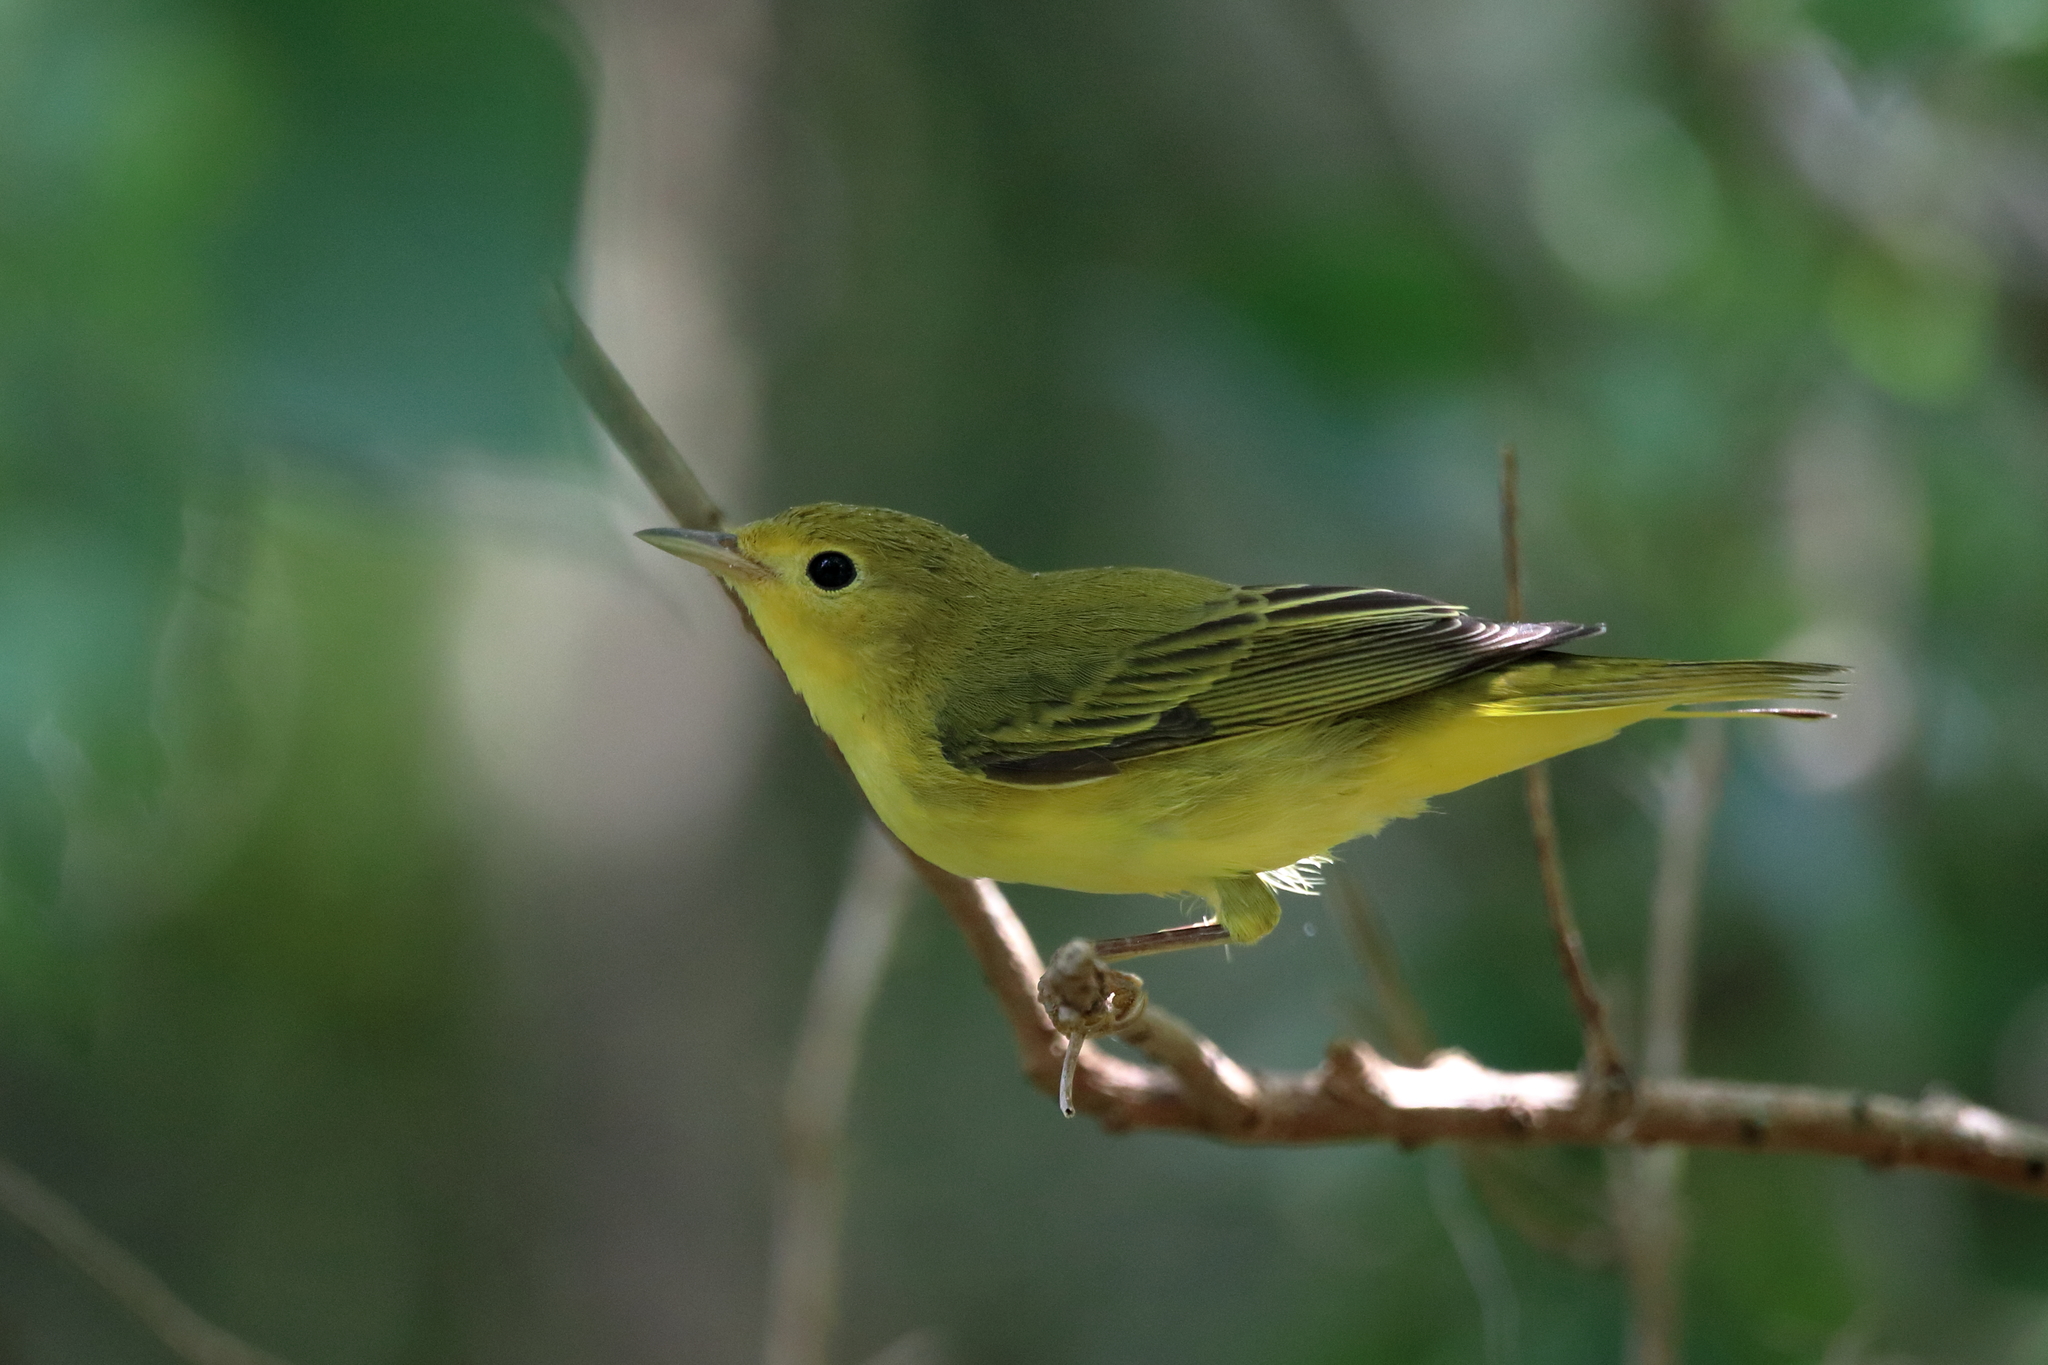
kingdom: Animalia
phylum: Chordata
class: Aves
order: Passeriformes
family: Parulidae
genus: Setophaga
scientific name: Setophaga petechia
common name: Yellow warbler
